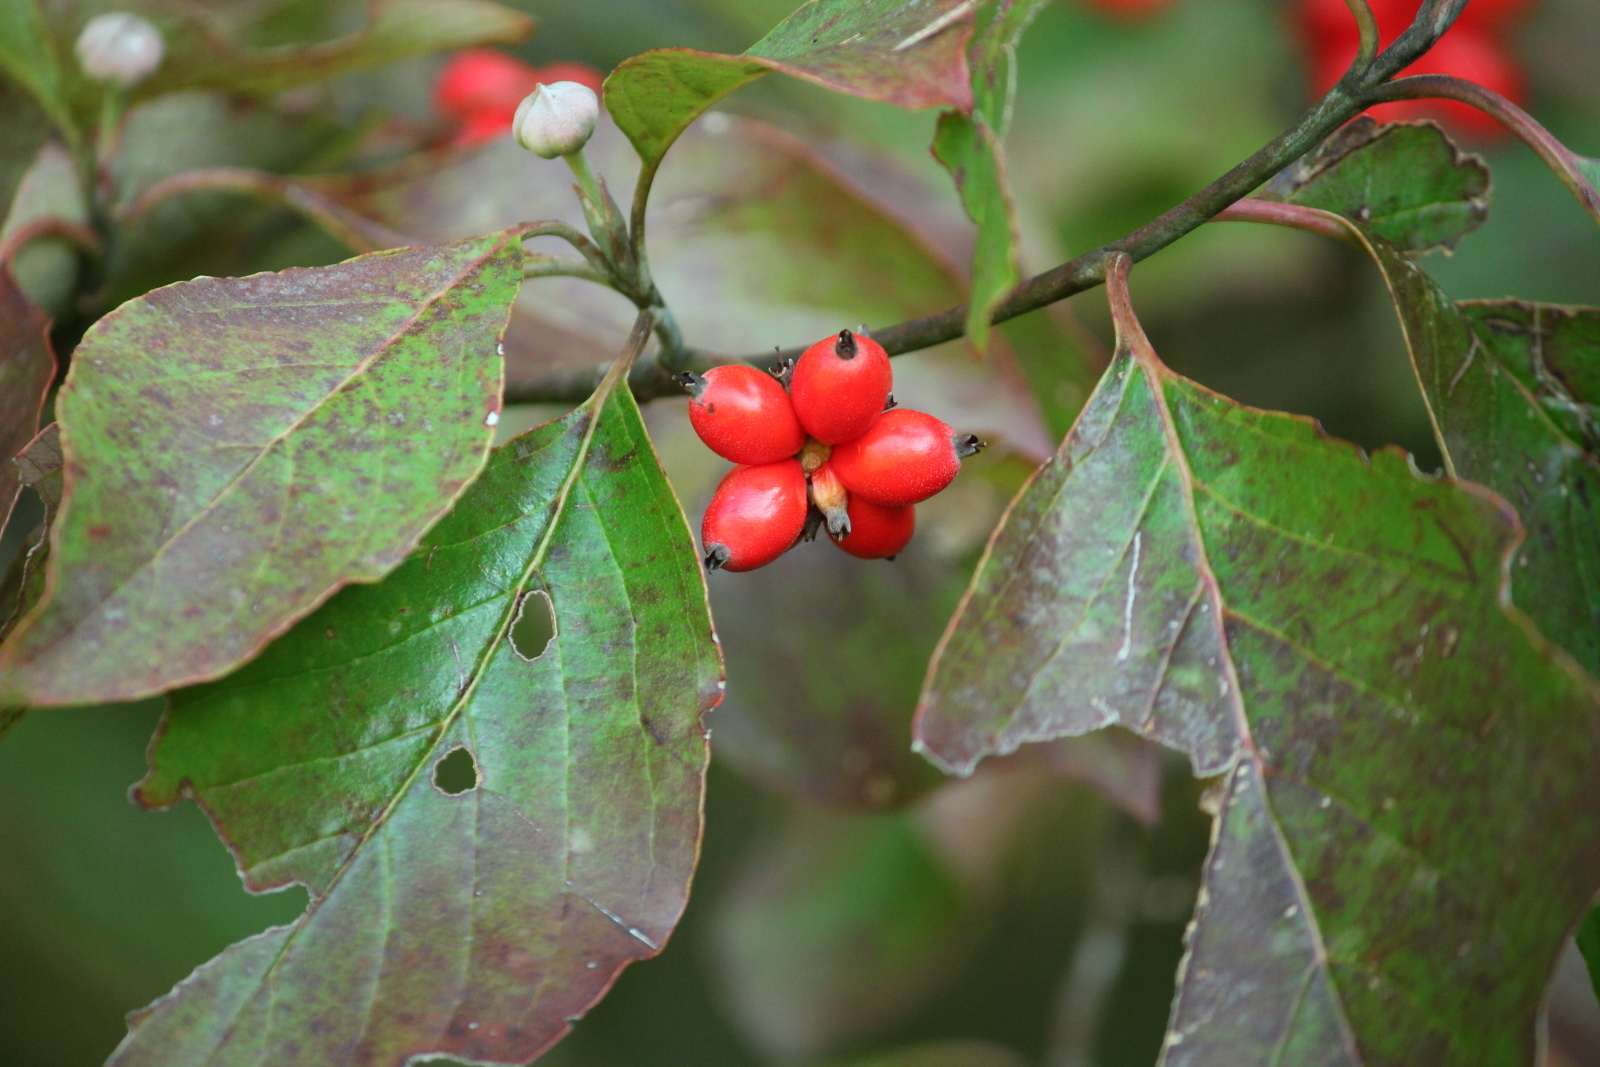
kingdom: Plantae
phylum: Tracheophyta
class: Magnoliopsida
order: Cornales
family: Cornaceae
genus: Cornus
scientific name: Cornus florida
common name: Flowering dogwood
